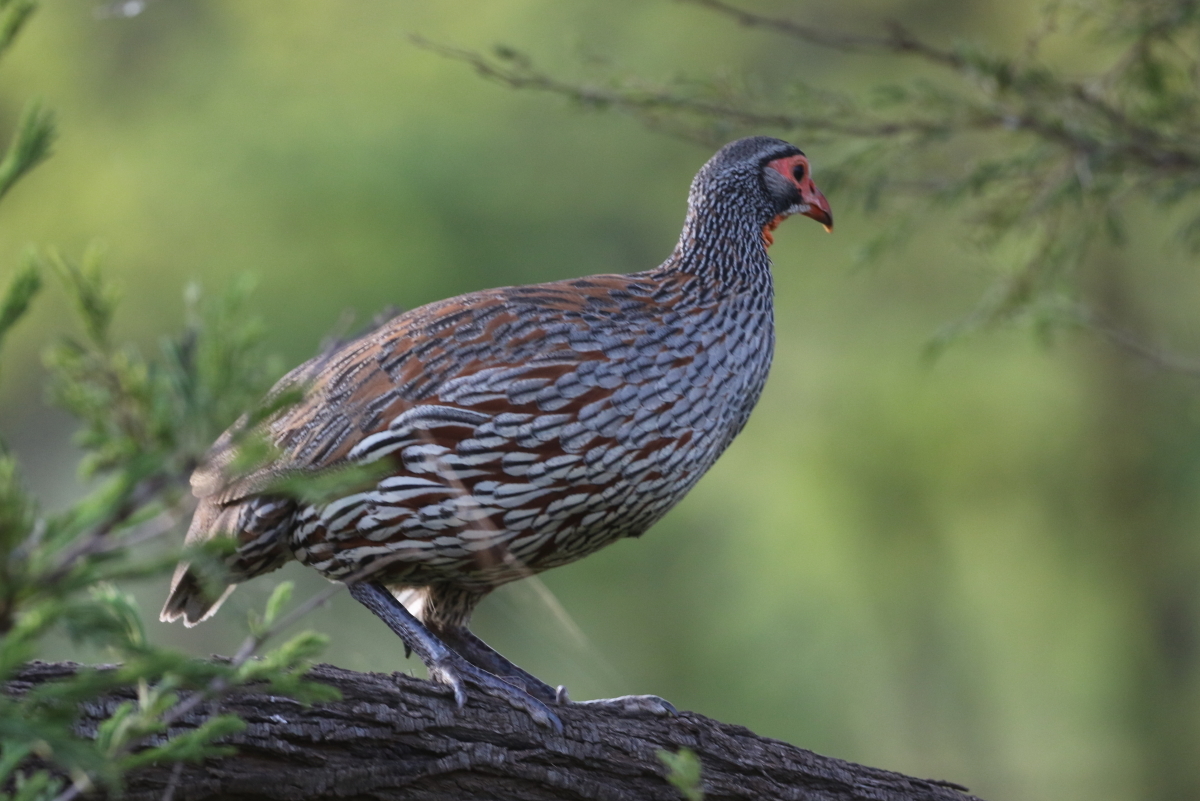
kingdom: Animalia
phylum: Chordata
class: Aves
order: Galliformes
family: Phasianidae
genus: Pternistis
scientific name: Pternistis rufopictus
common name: Grey-breasted spurfowl
